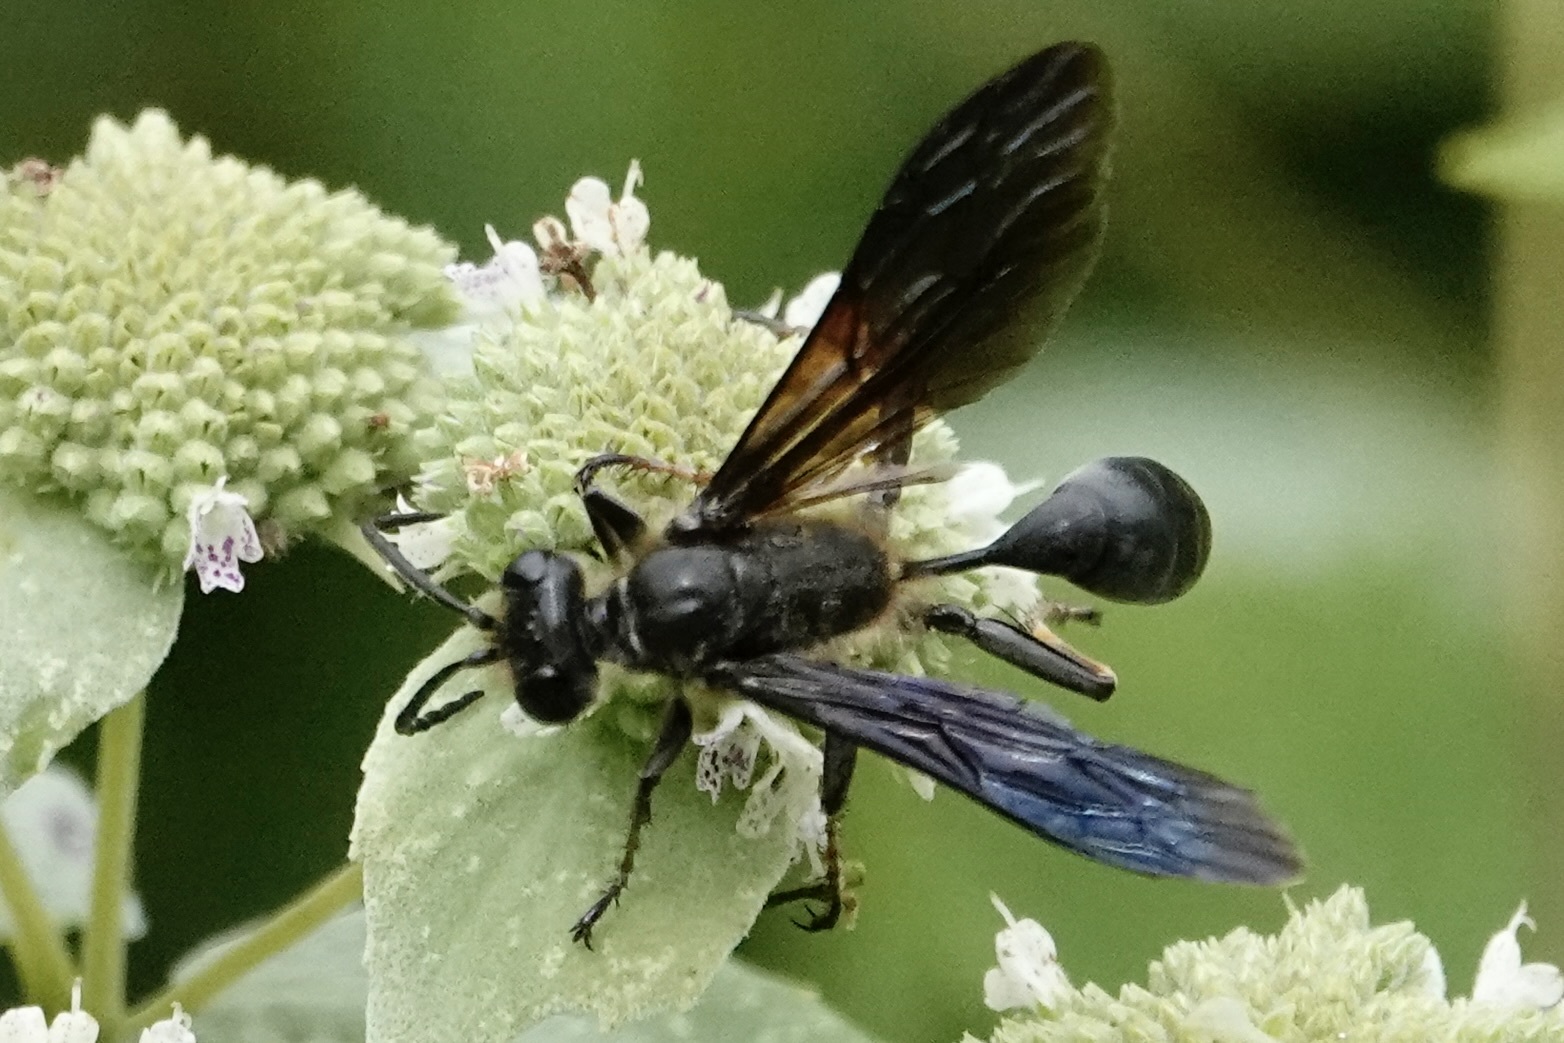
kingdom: Animalia
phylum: Arthropoda
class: Insecta
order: Hymenoptera
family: Sphecidae
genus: Isodontia
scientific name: Isodontia auripes
